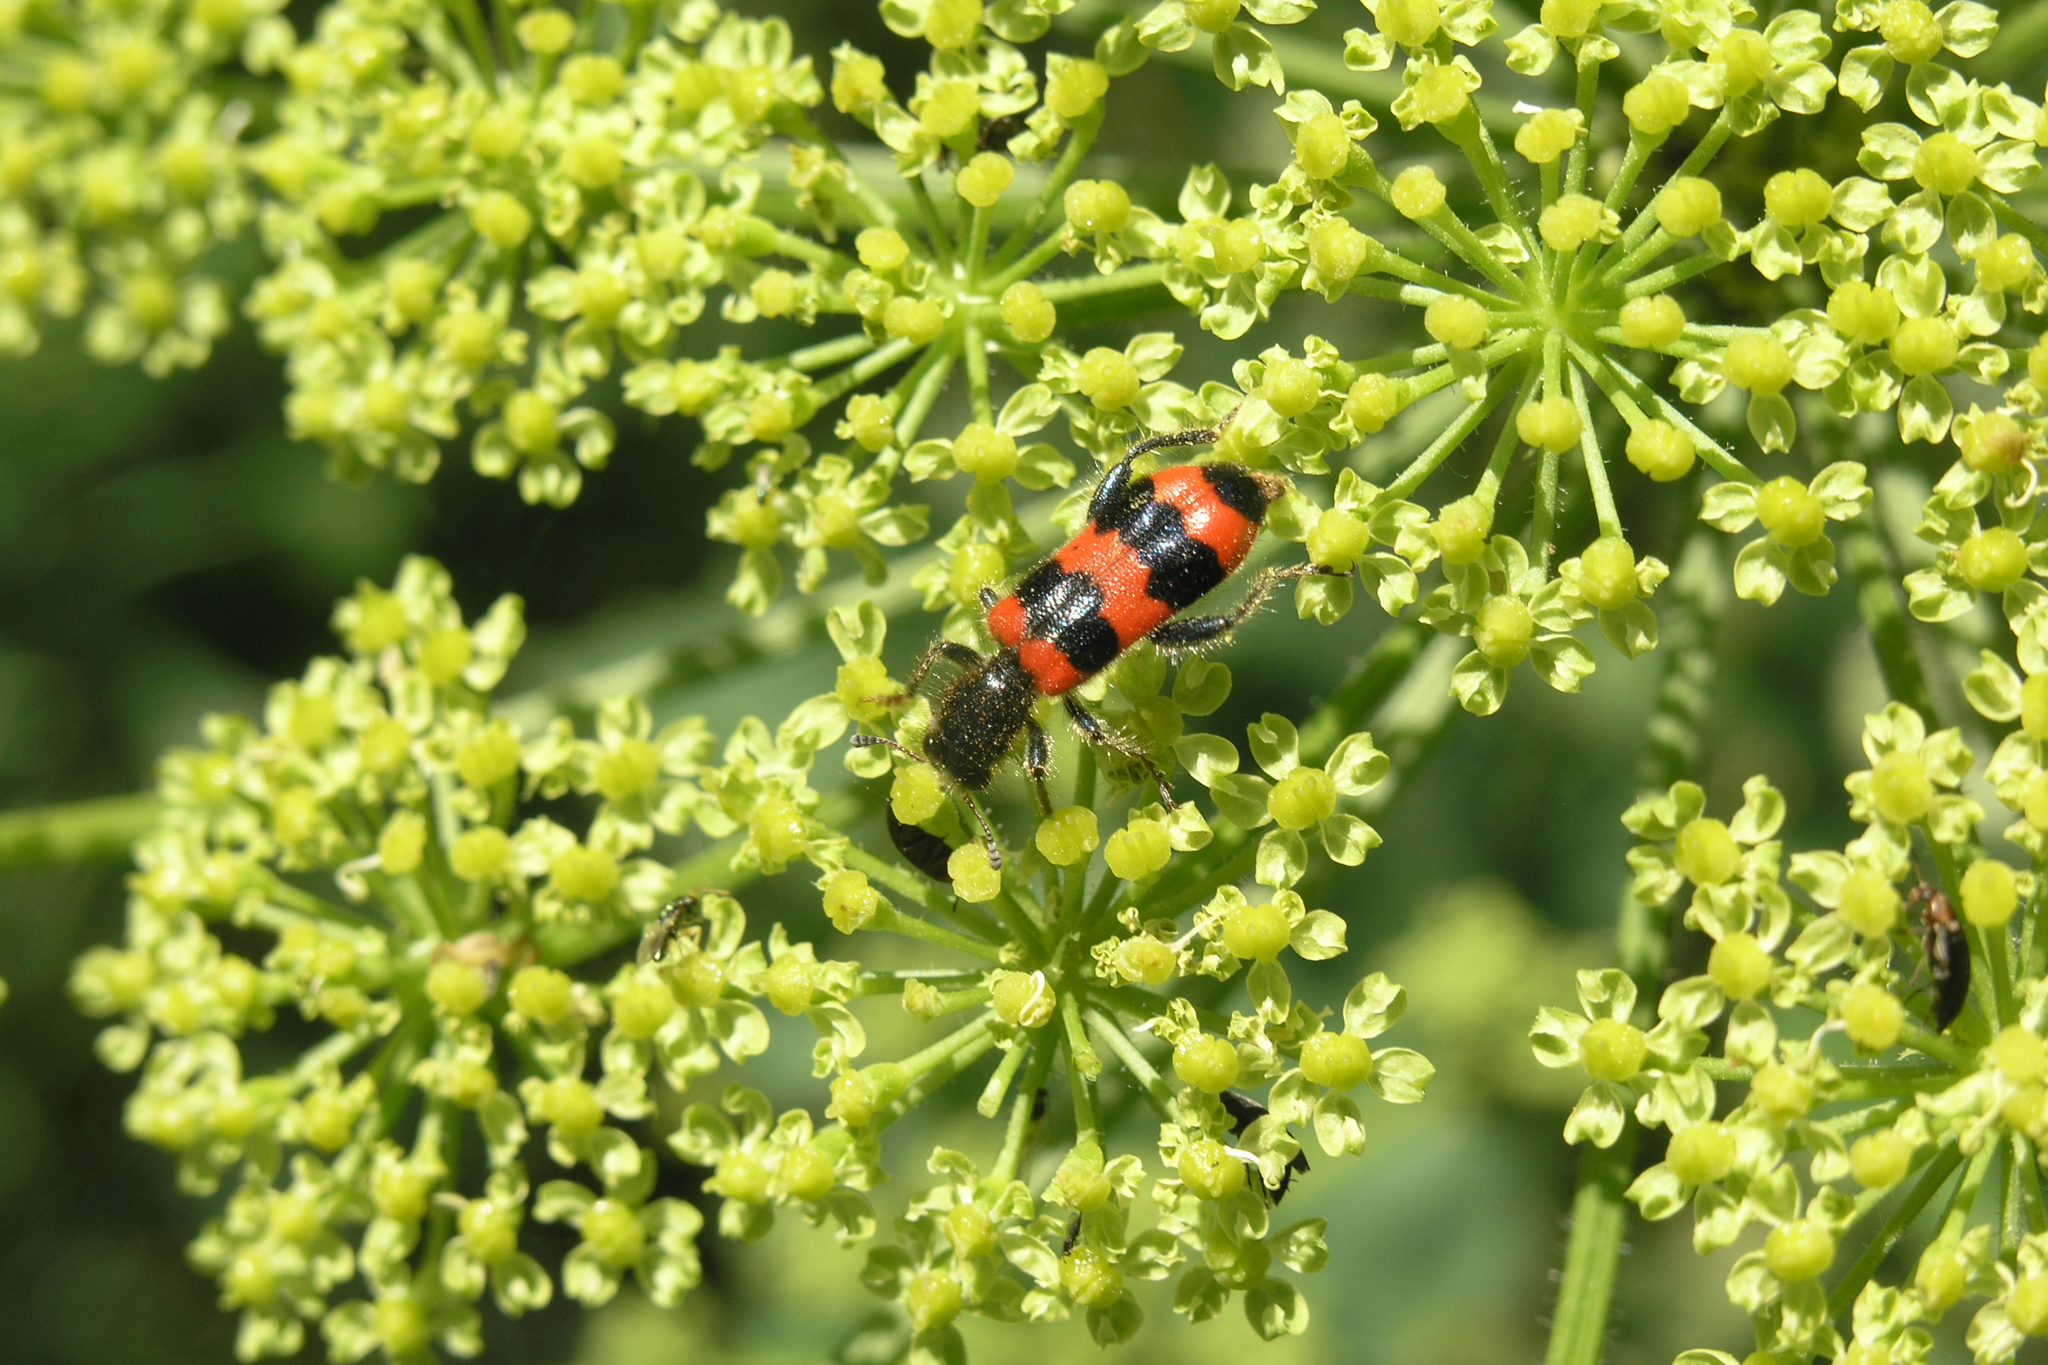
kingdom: Animalia
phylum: Arthropoda
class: Insecta
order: Coleoptera
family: Cleridae
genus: Trichodes
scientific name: Trichodes apiarius
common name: Bee-eating beetle
